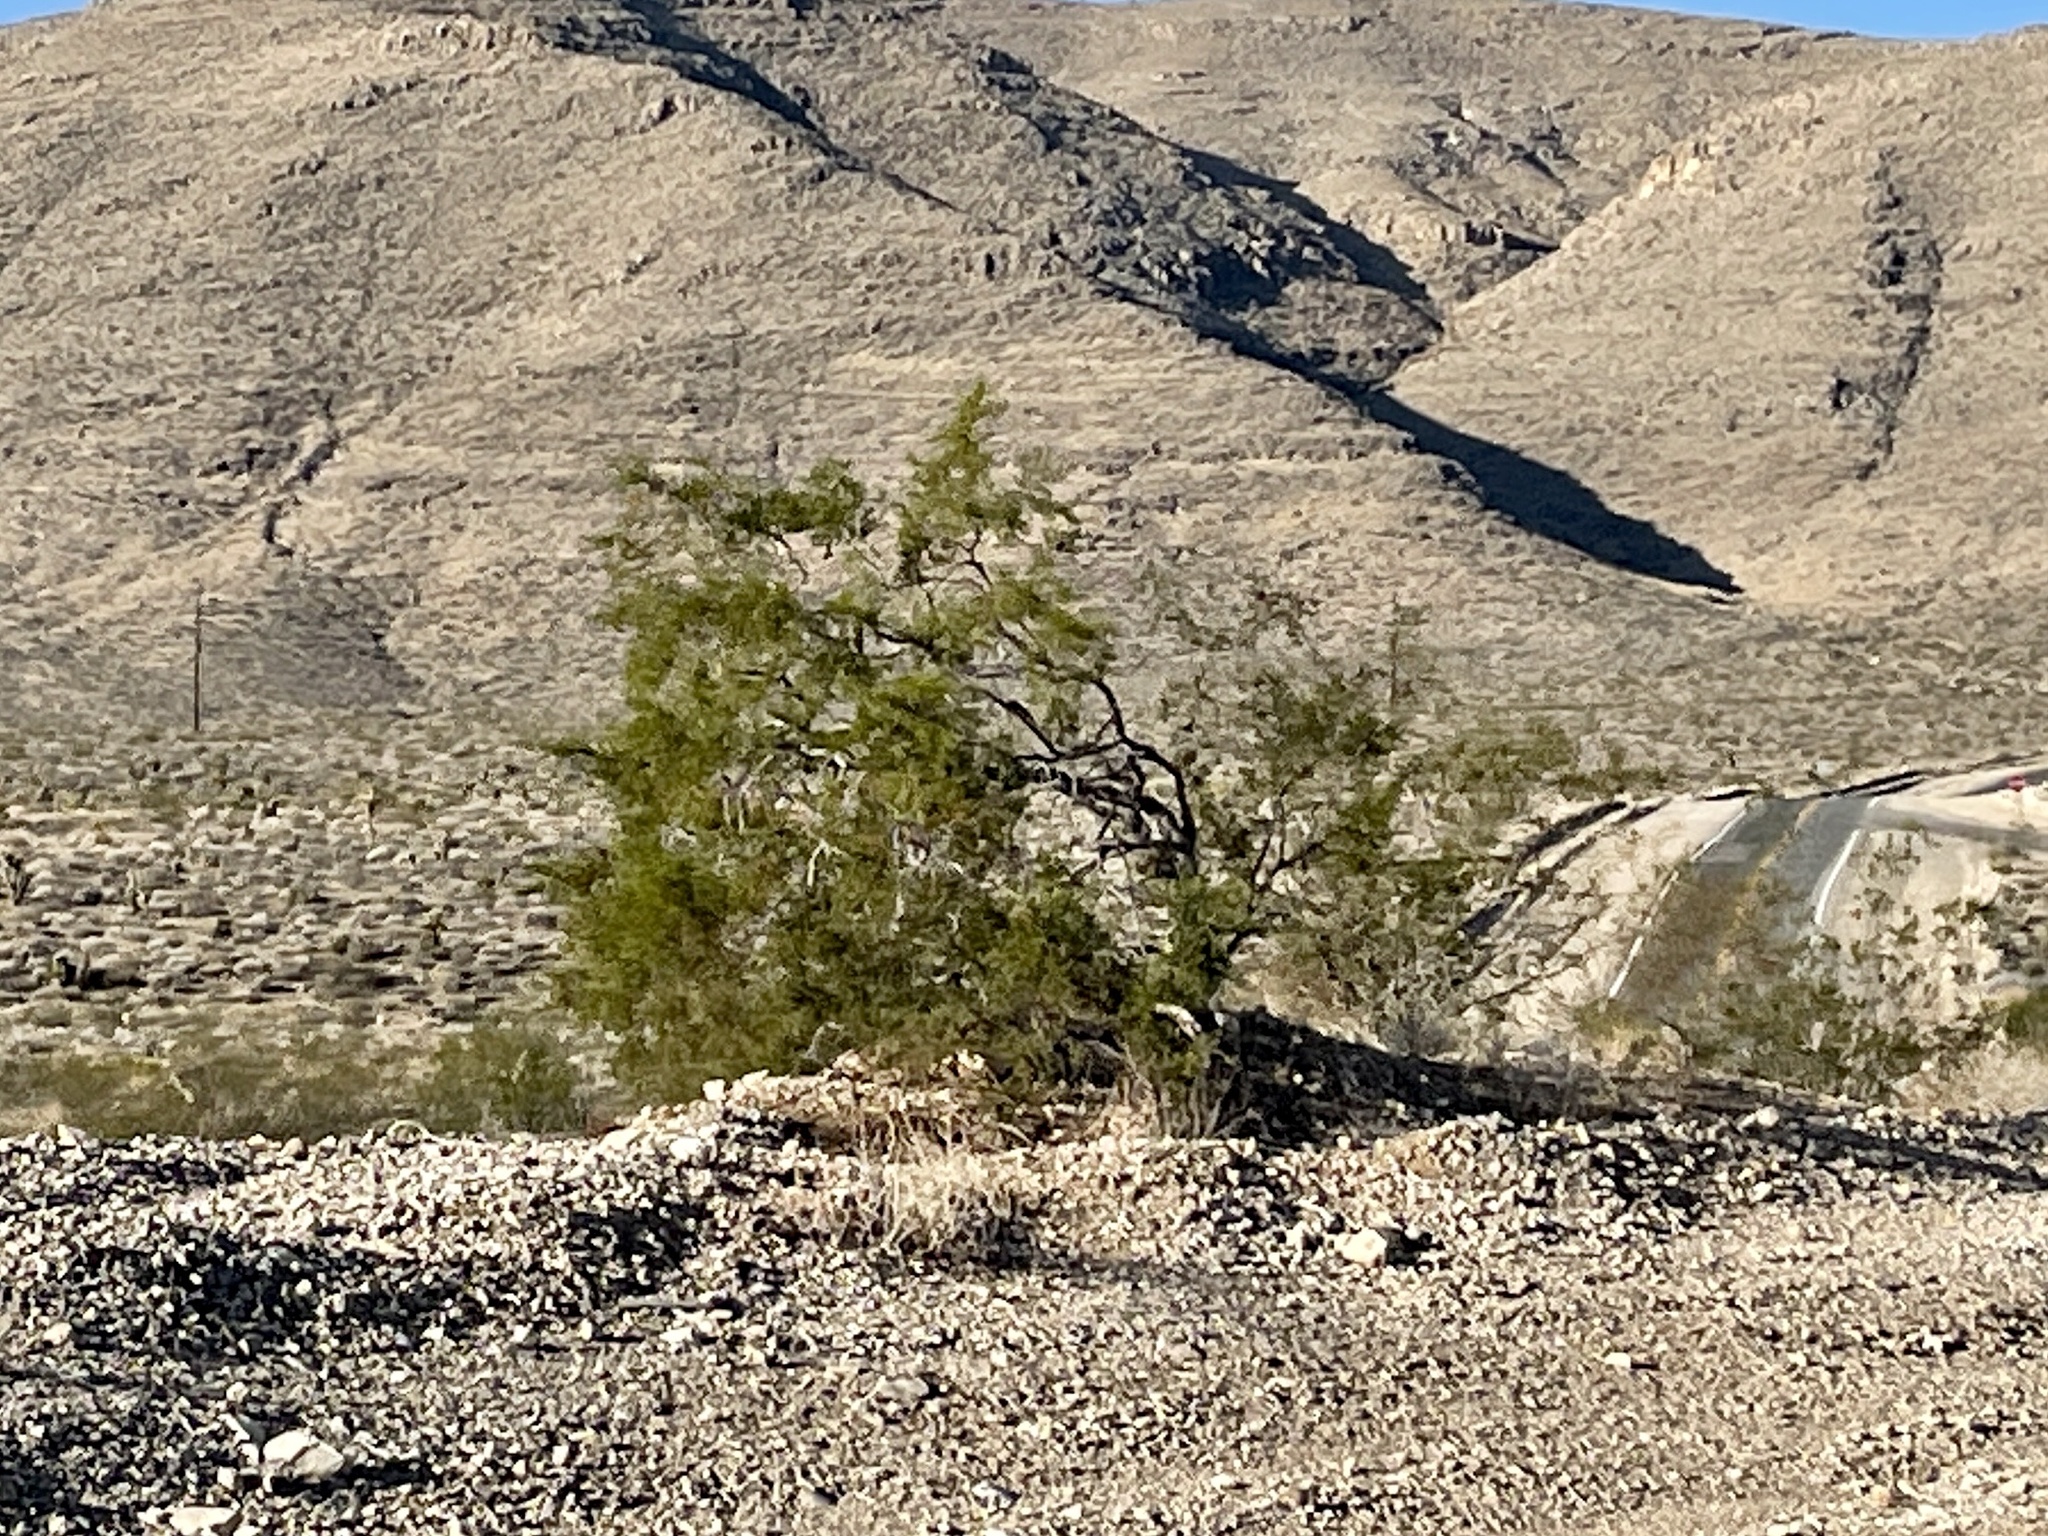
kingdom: Plantae
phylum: Tracheophyta
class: Magnoliopsida
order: Zygophyllales
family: Zygophyllaceae
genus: Larrea
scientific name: Larrea tridentata
